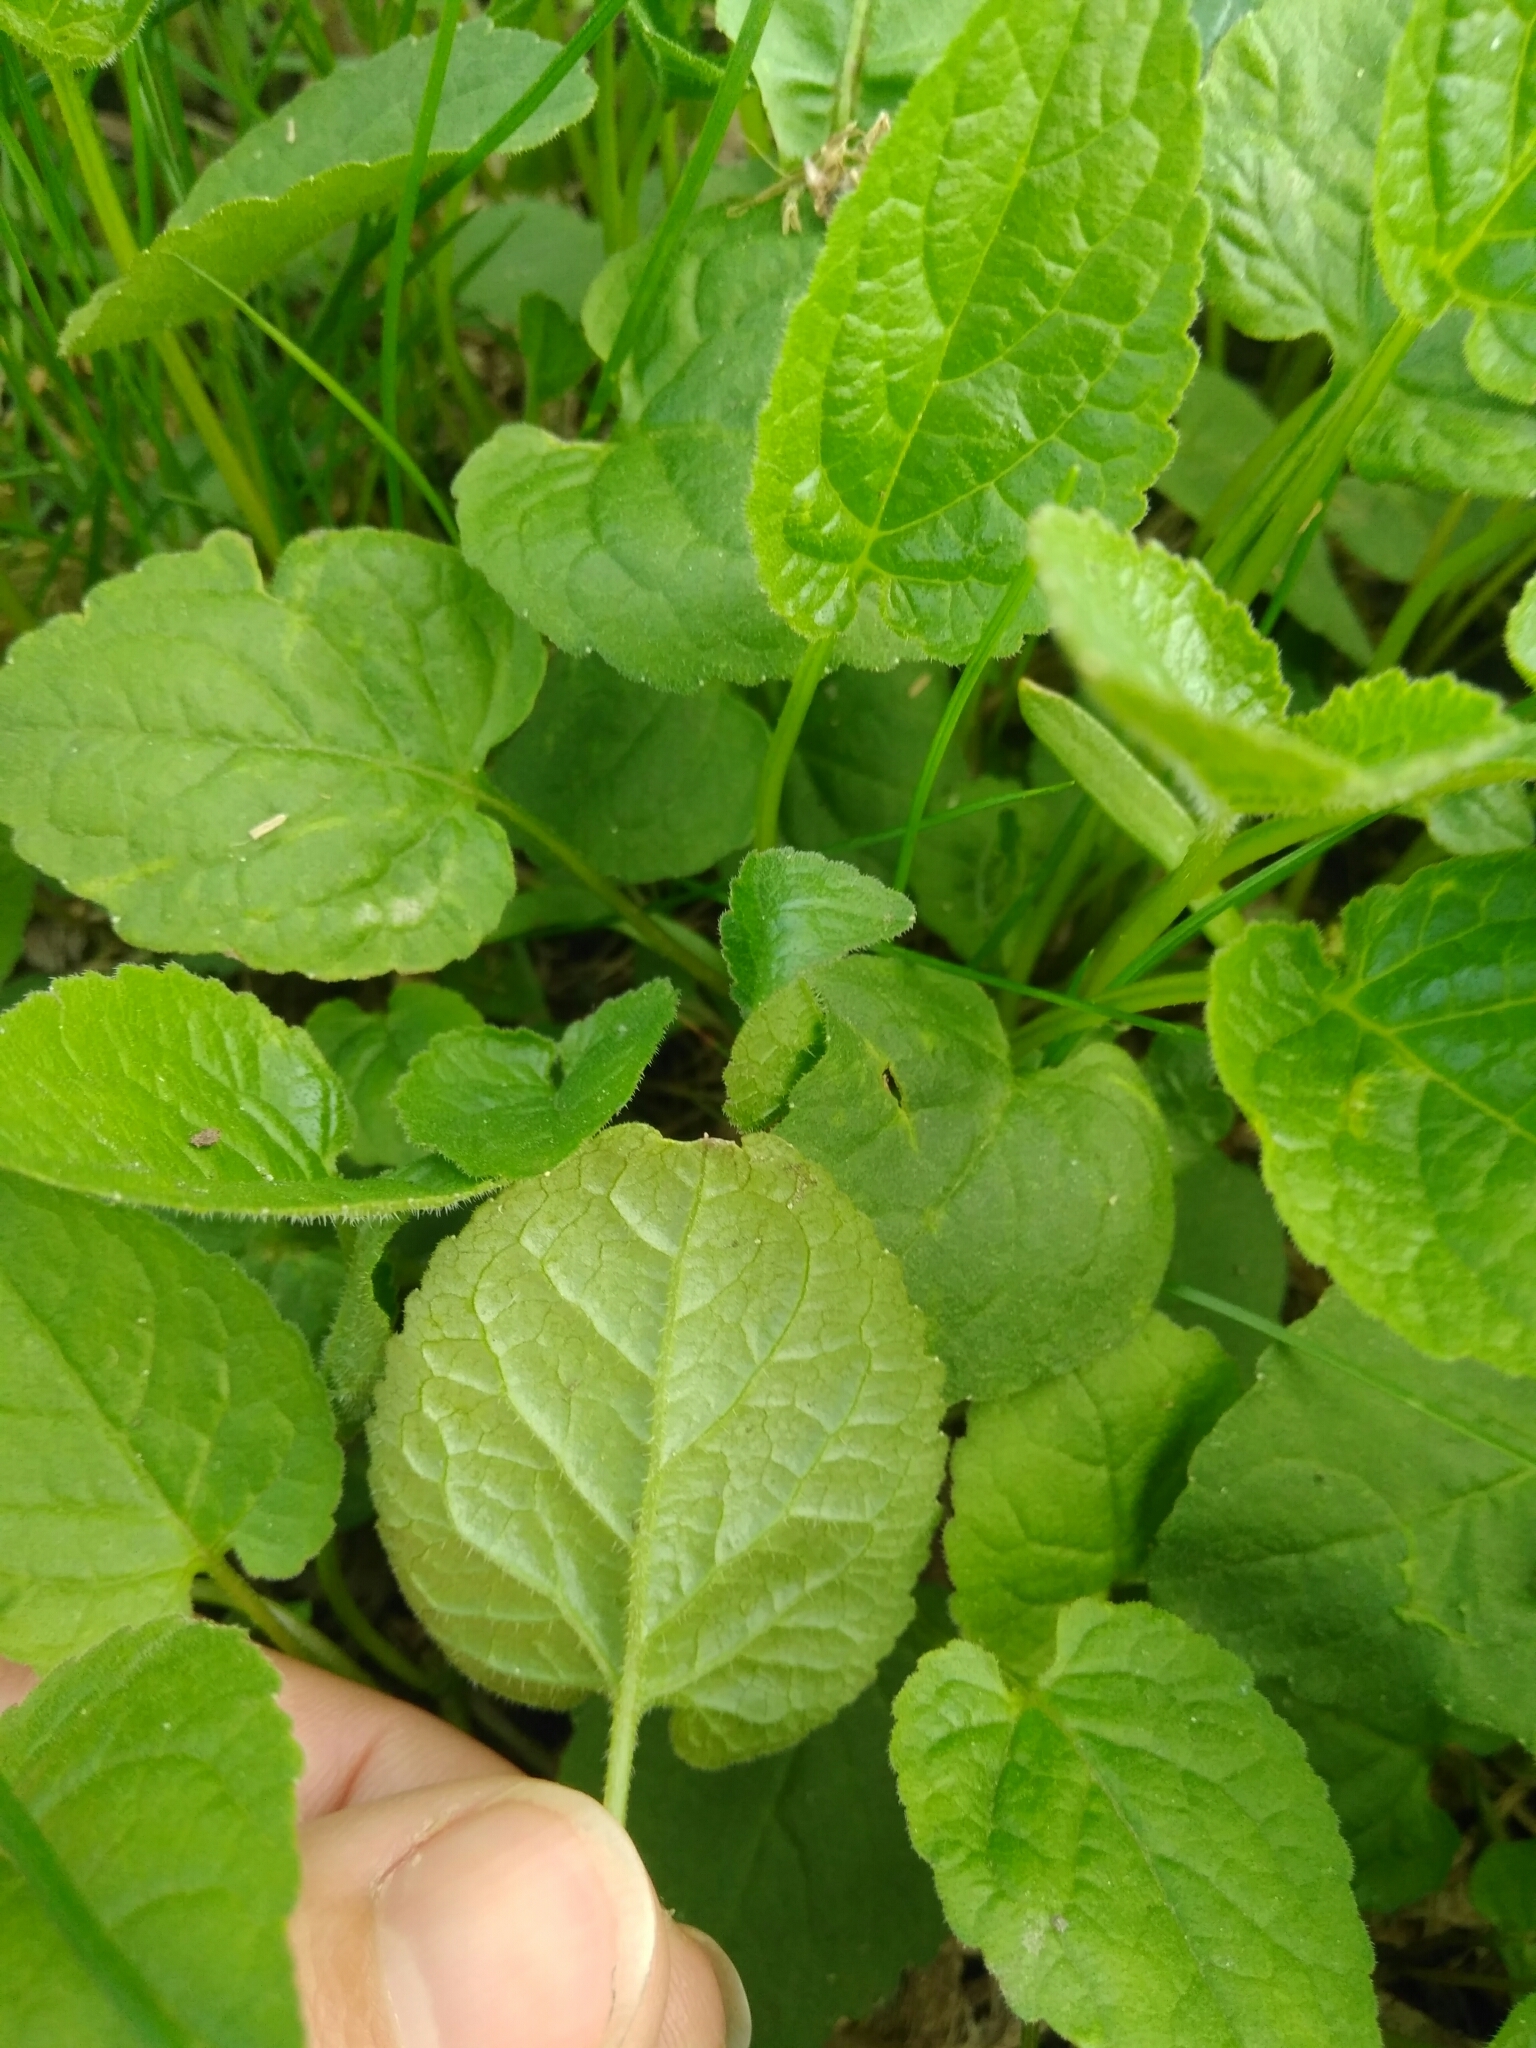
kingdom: Plantae
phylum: Tracheophyta
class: Magnoliopsida
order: Asterales
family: Campanulaceae
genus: Campanula
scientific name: Campanula rapunculoides
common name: Creeping bellflower
